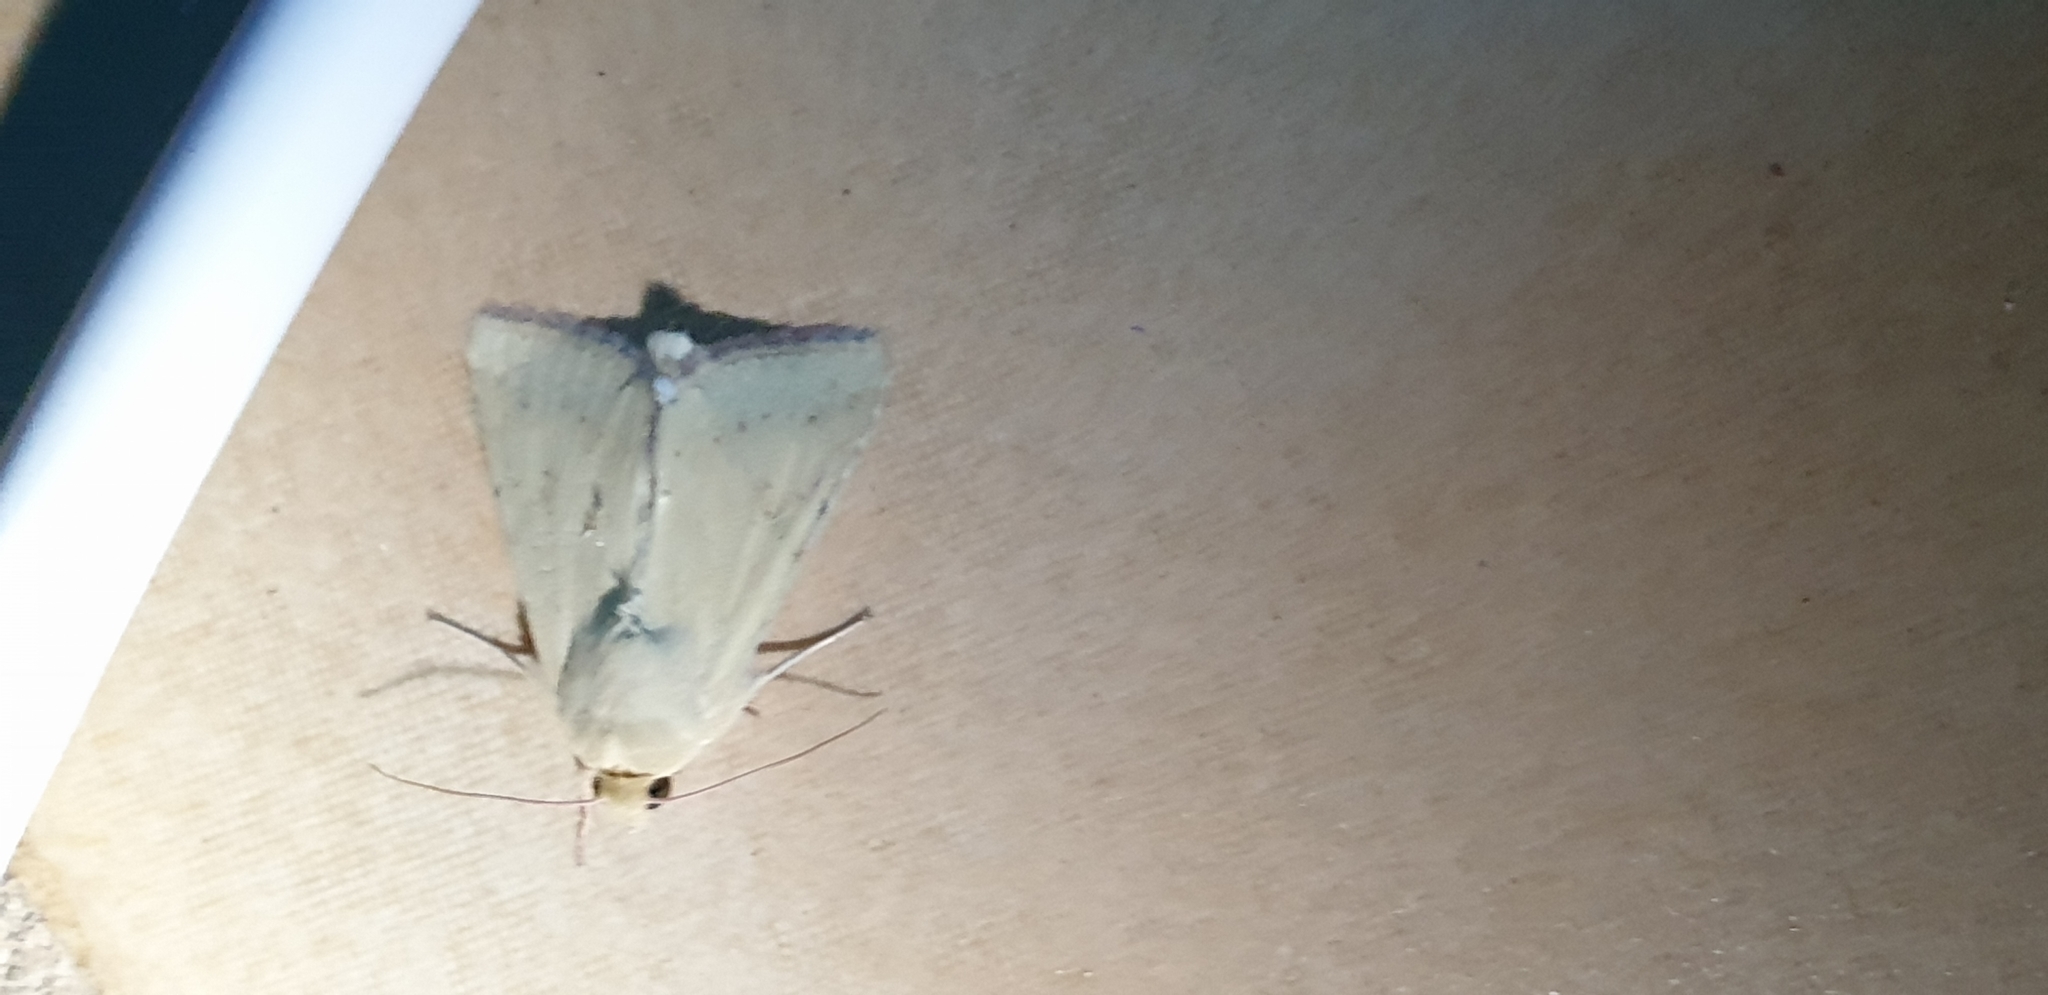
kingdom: Animalia
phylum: Arthropoda
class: Insecta
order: Lepidoptera
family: Noctuidae
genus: Helicoverpa
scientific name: Helicoverpa punctigera
